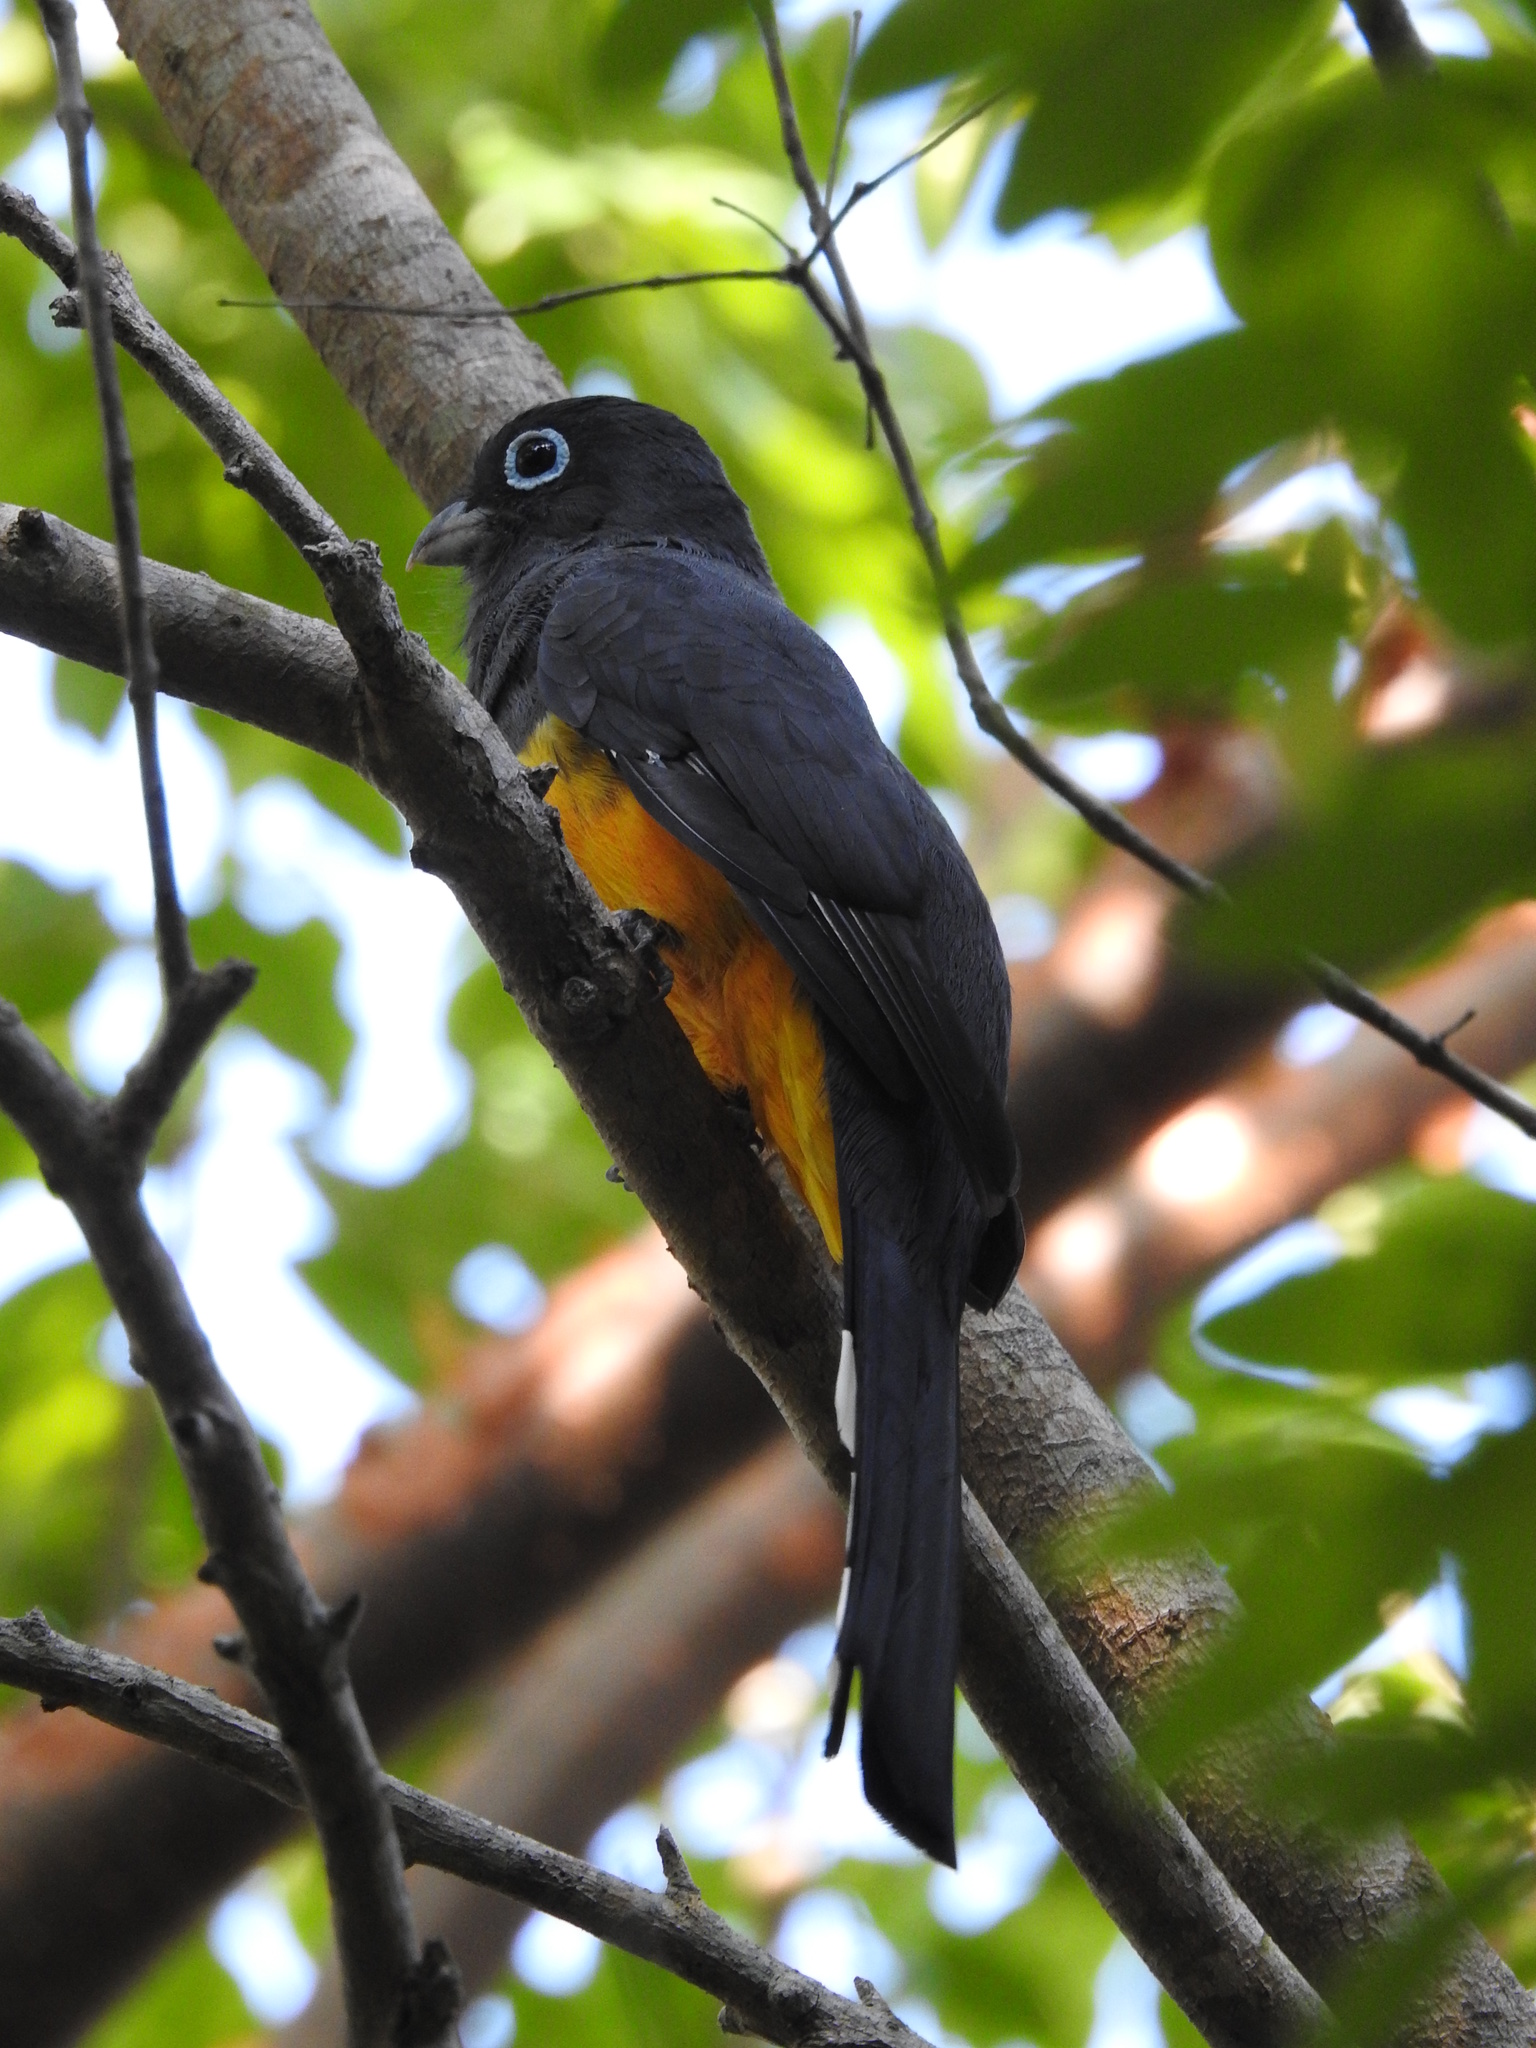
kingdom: Animalia
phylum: Chordata
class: Aves
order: Trogoniformes
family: Trogonidae
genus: Trogon
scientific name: Trogon melanocephalus
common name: Black-headed trogon
